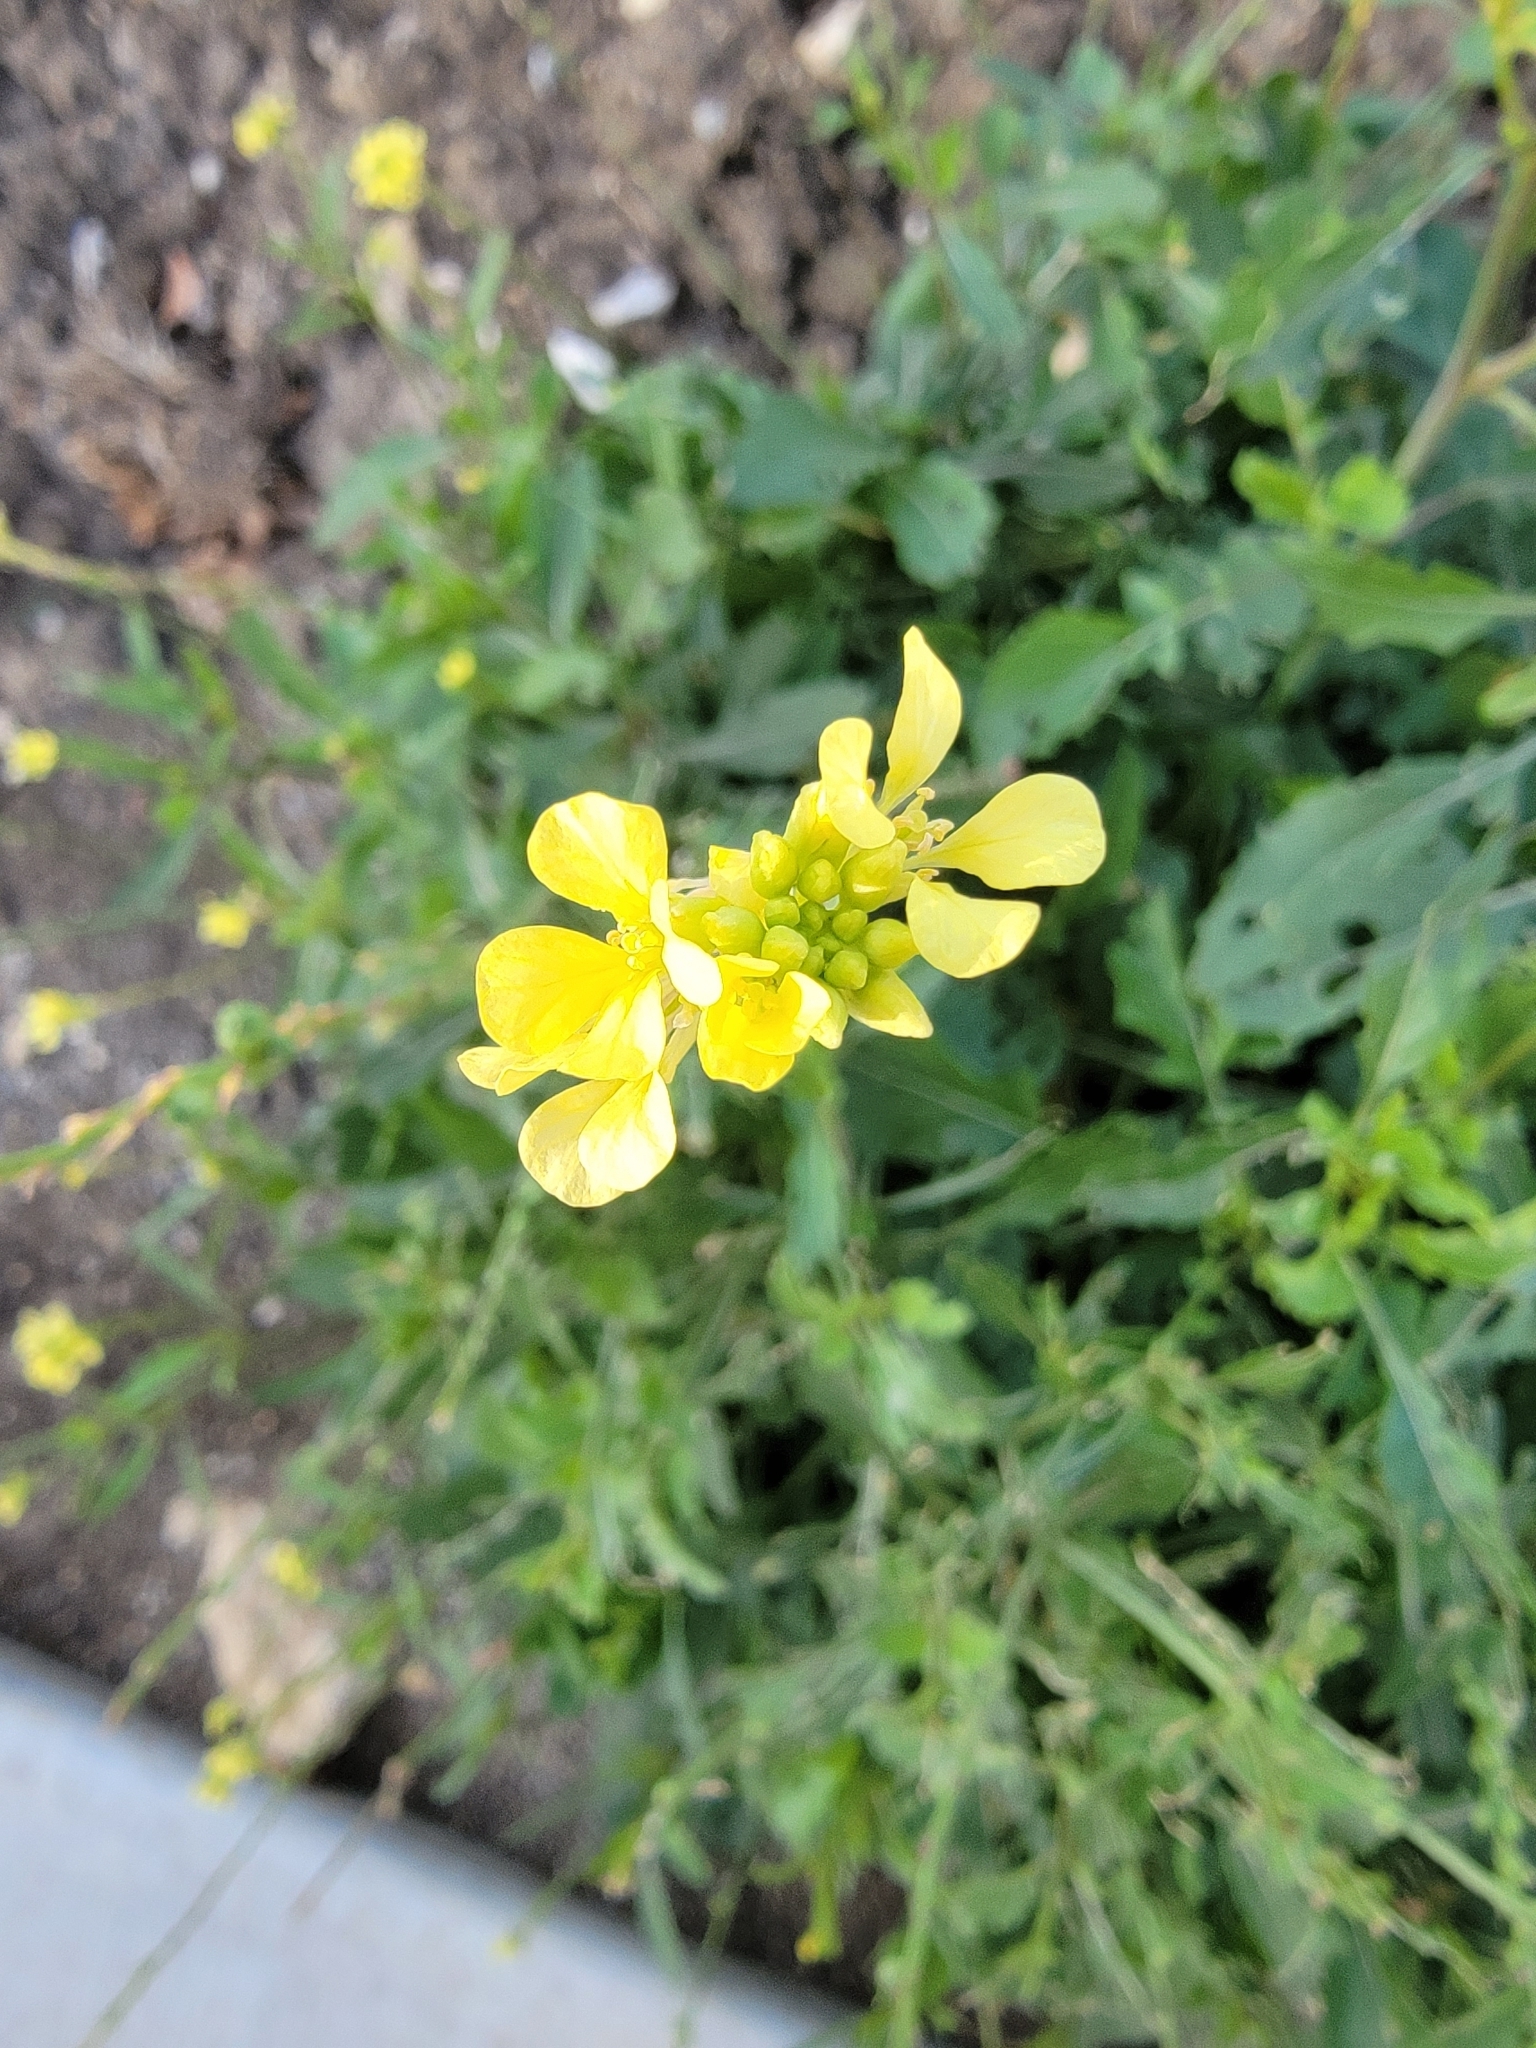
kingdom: Plantae
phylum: Tracheophyta
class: Magnoliopsida
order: Brassicales
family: Brassicaceae
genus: Rapistrum
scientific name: Rapistrum rugosum
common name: Annual bastardcabbage
